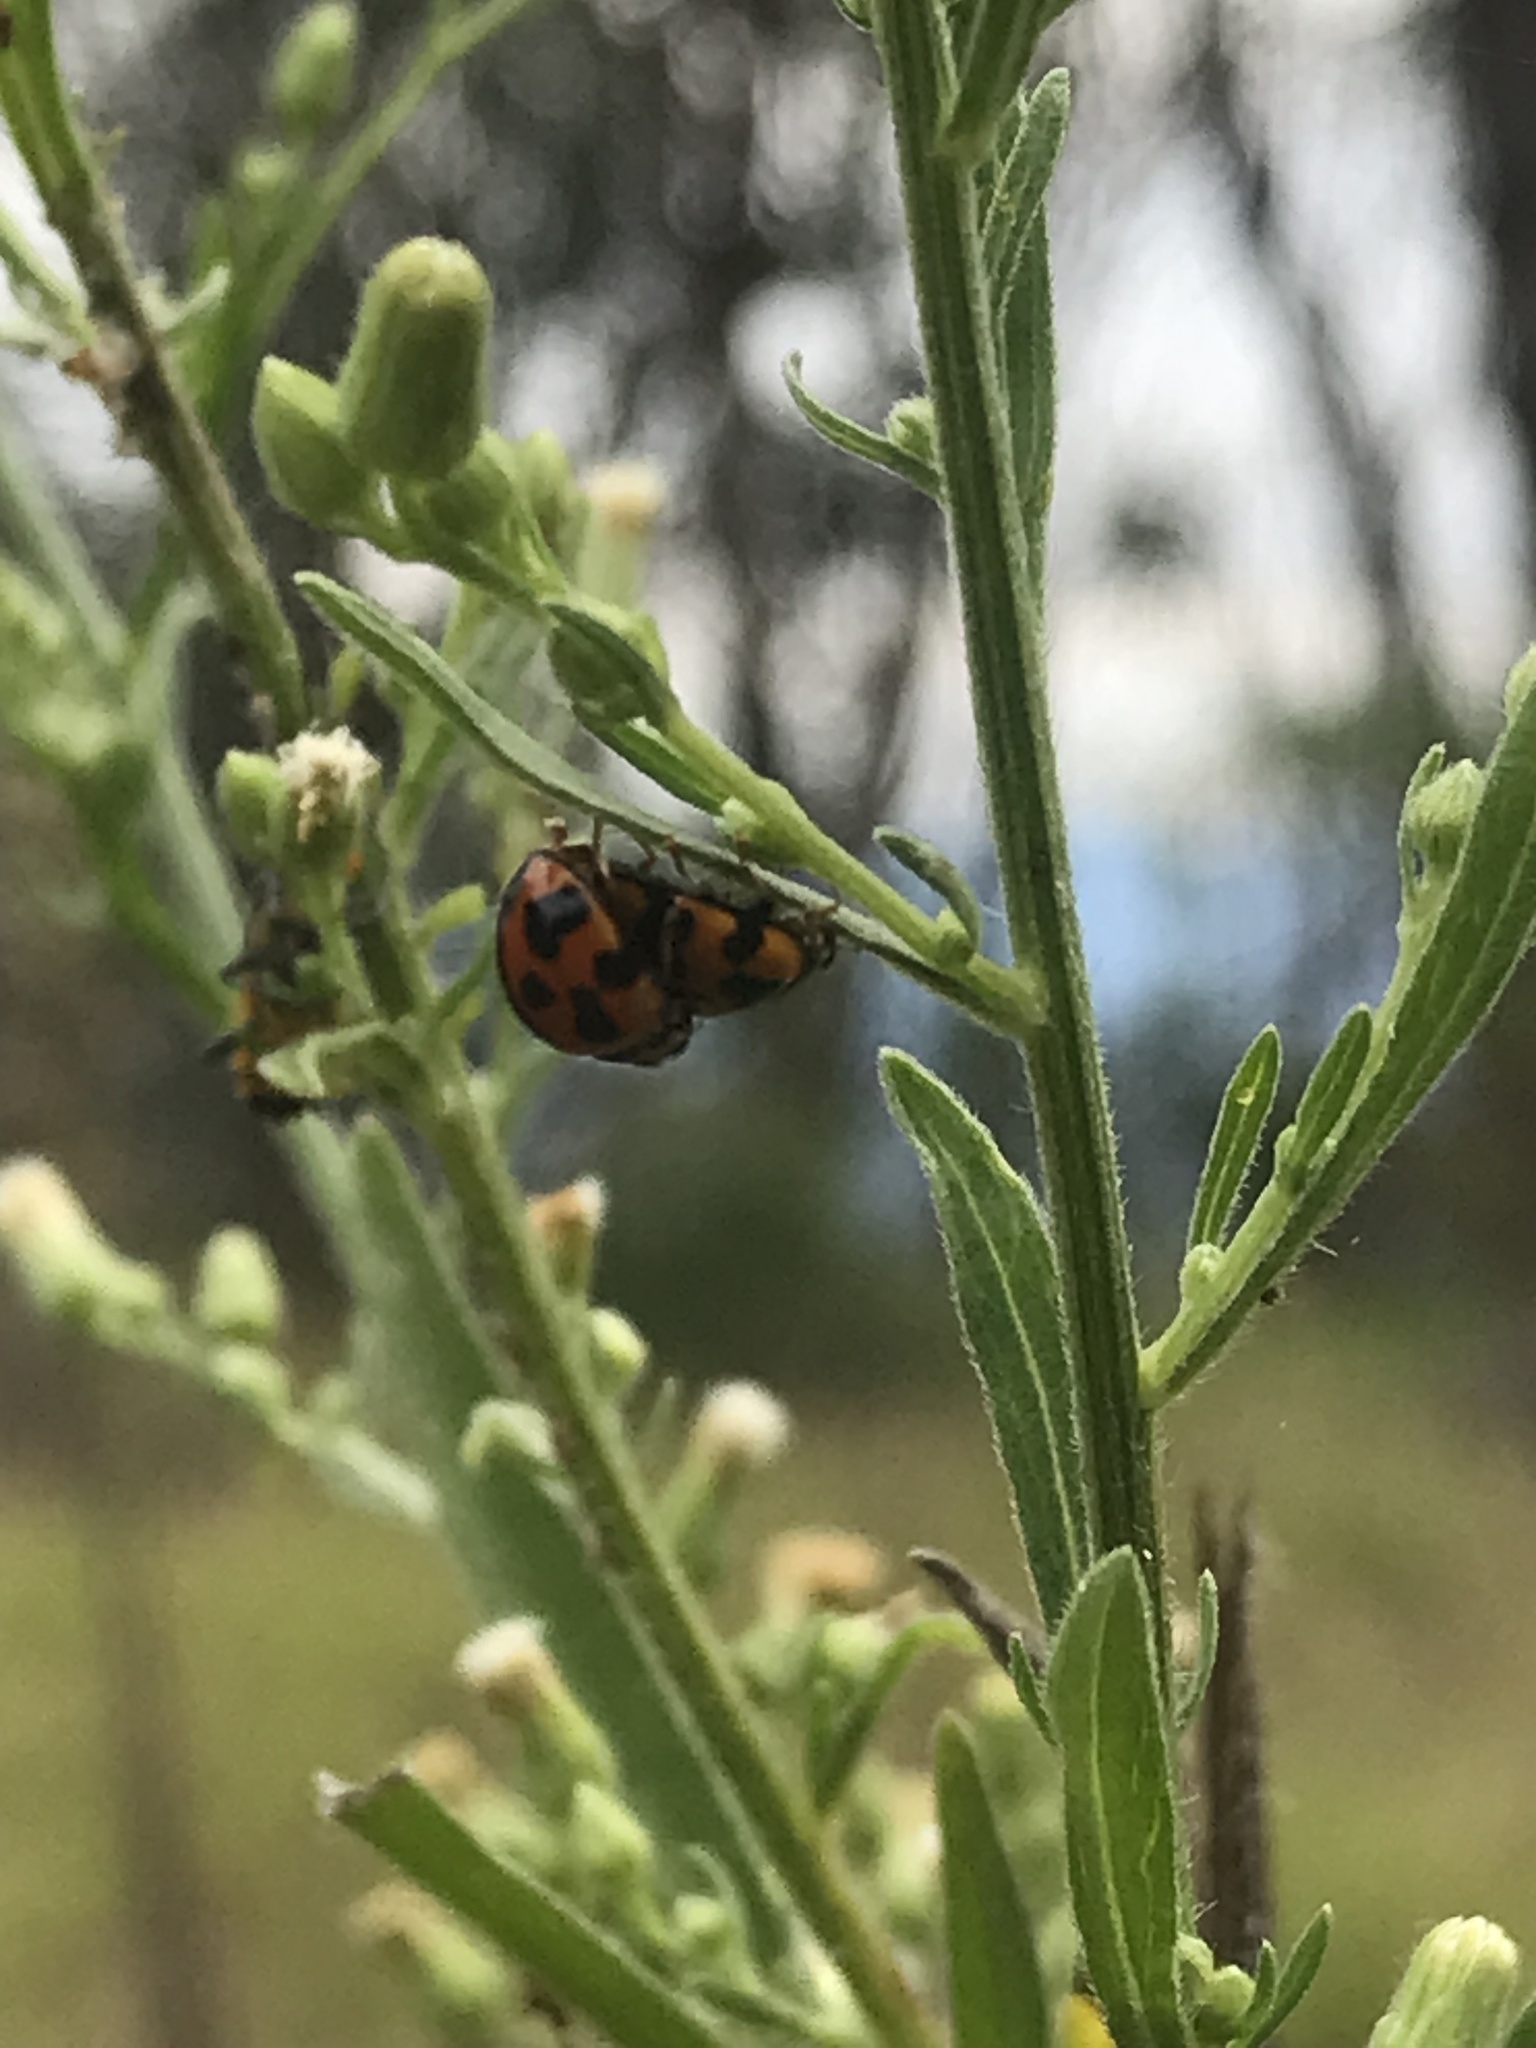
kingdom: Animalia
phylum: Arthropoda
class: Insecta
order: Coleoptera
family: Coccinellidae
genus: Coelophora
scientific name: Coelophora inaequalis
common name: Common australian lady beetle
